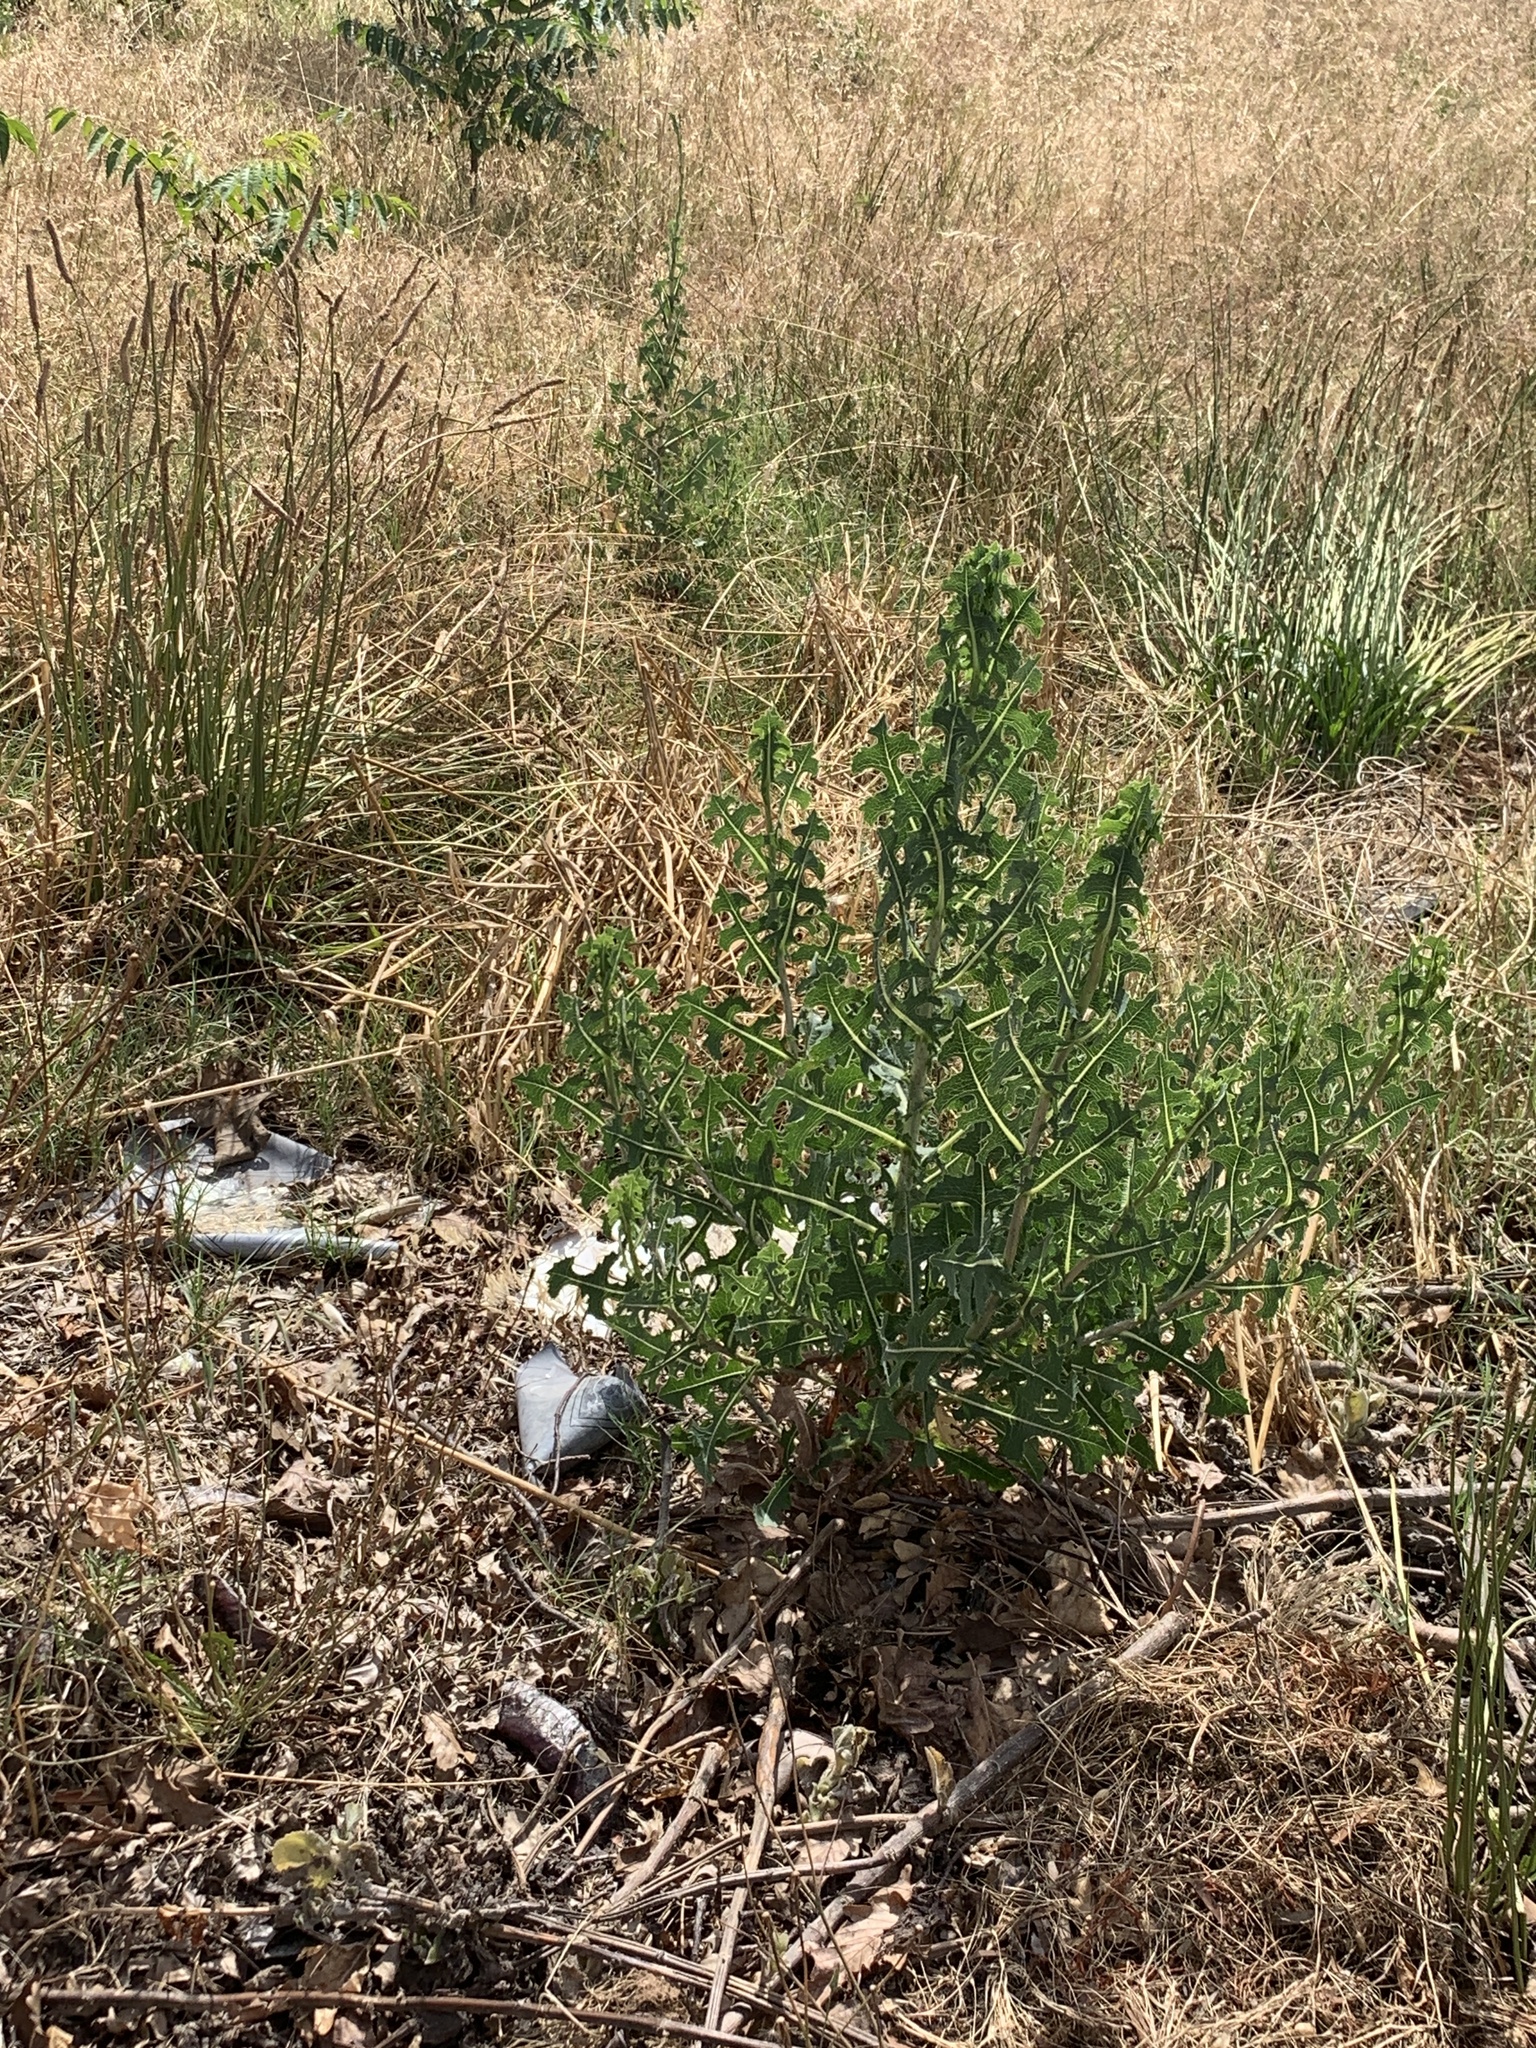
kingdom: Plantae
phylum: Tracheophyta
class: Magnoliopsida
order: Asterales
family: Asteraceae
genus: Lactuca
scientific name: Lactuca serriola
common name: Prickly lettuce
